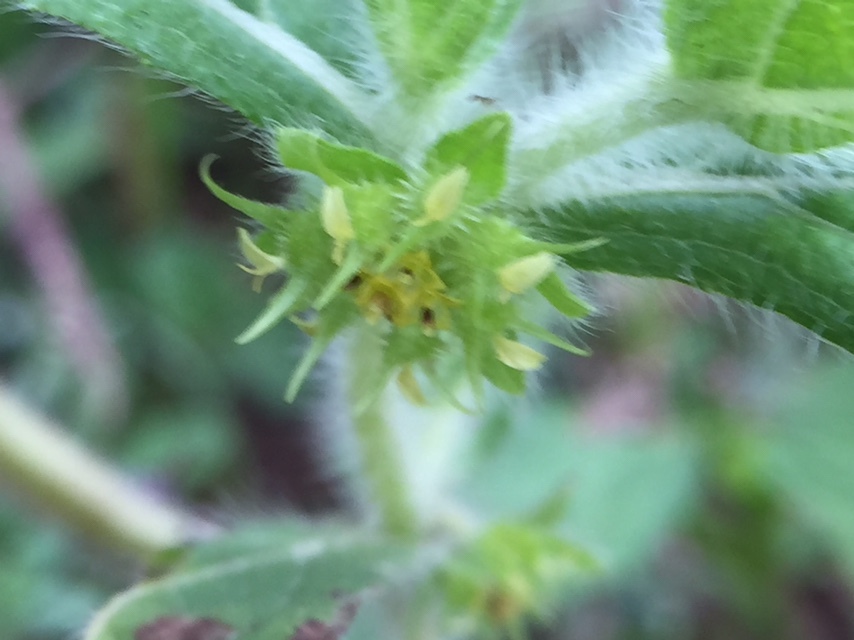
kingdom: Plantae
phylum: Tracheophyta
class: Magnoliopsida
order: Asterales
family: Asteraceae
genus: Acanthospermum
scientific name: Acanthospermum hispidum
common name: Hispid starbur
